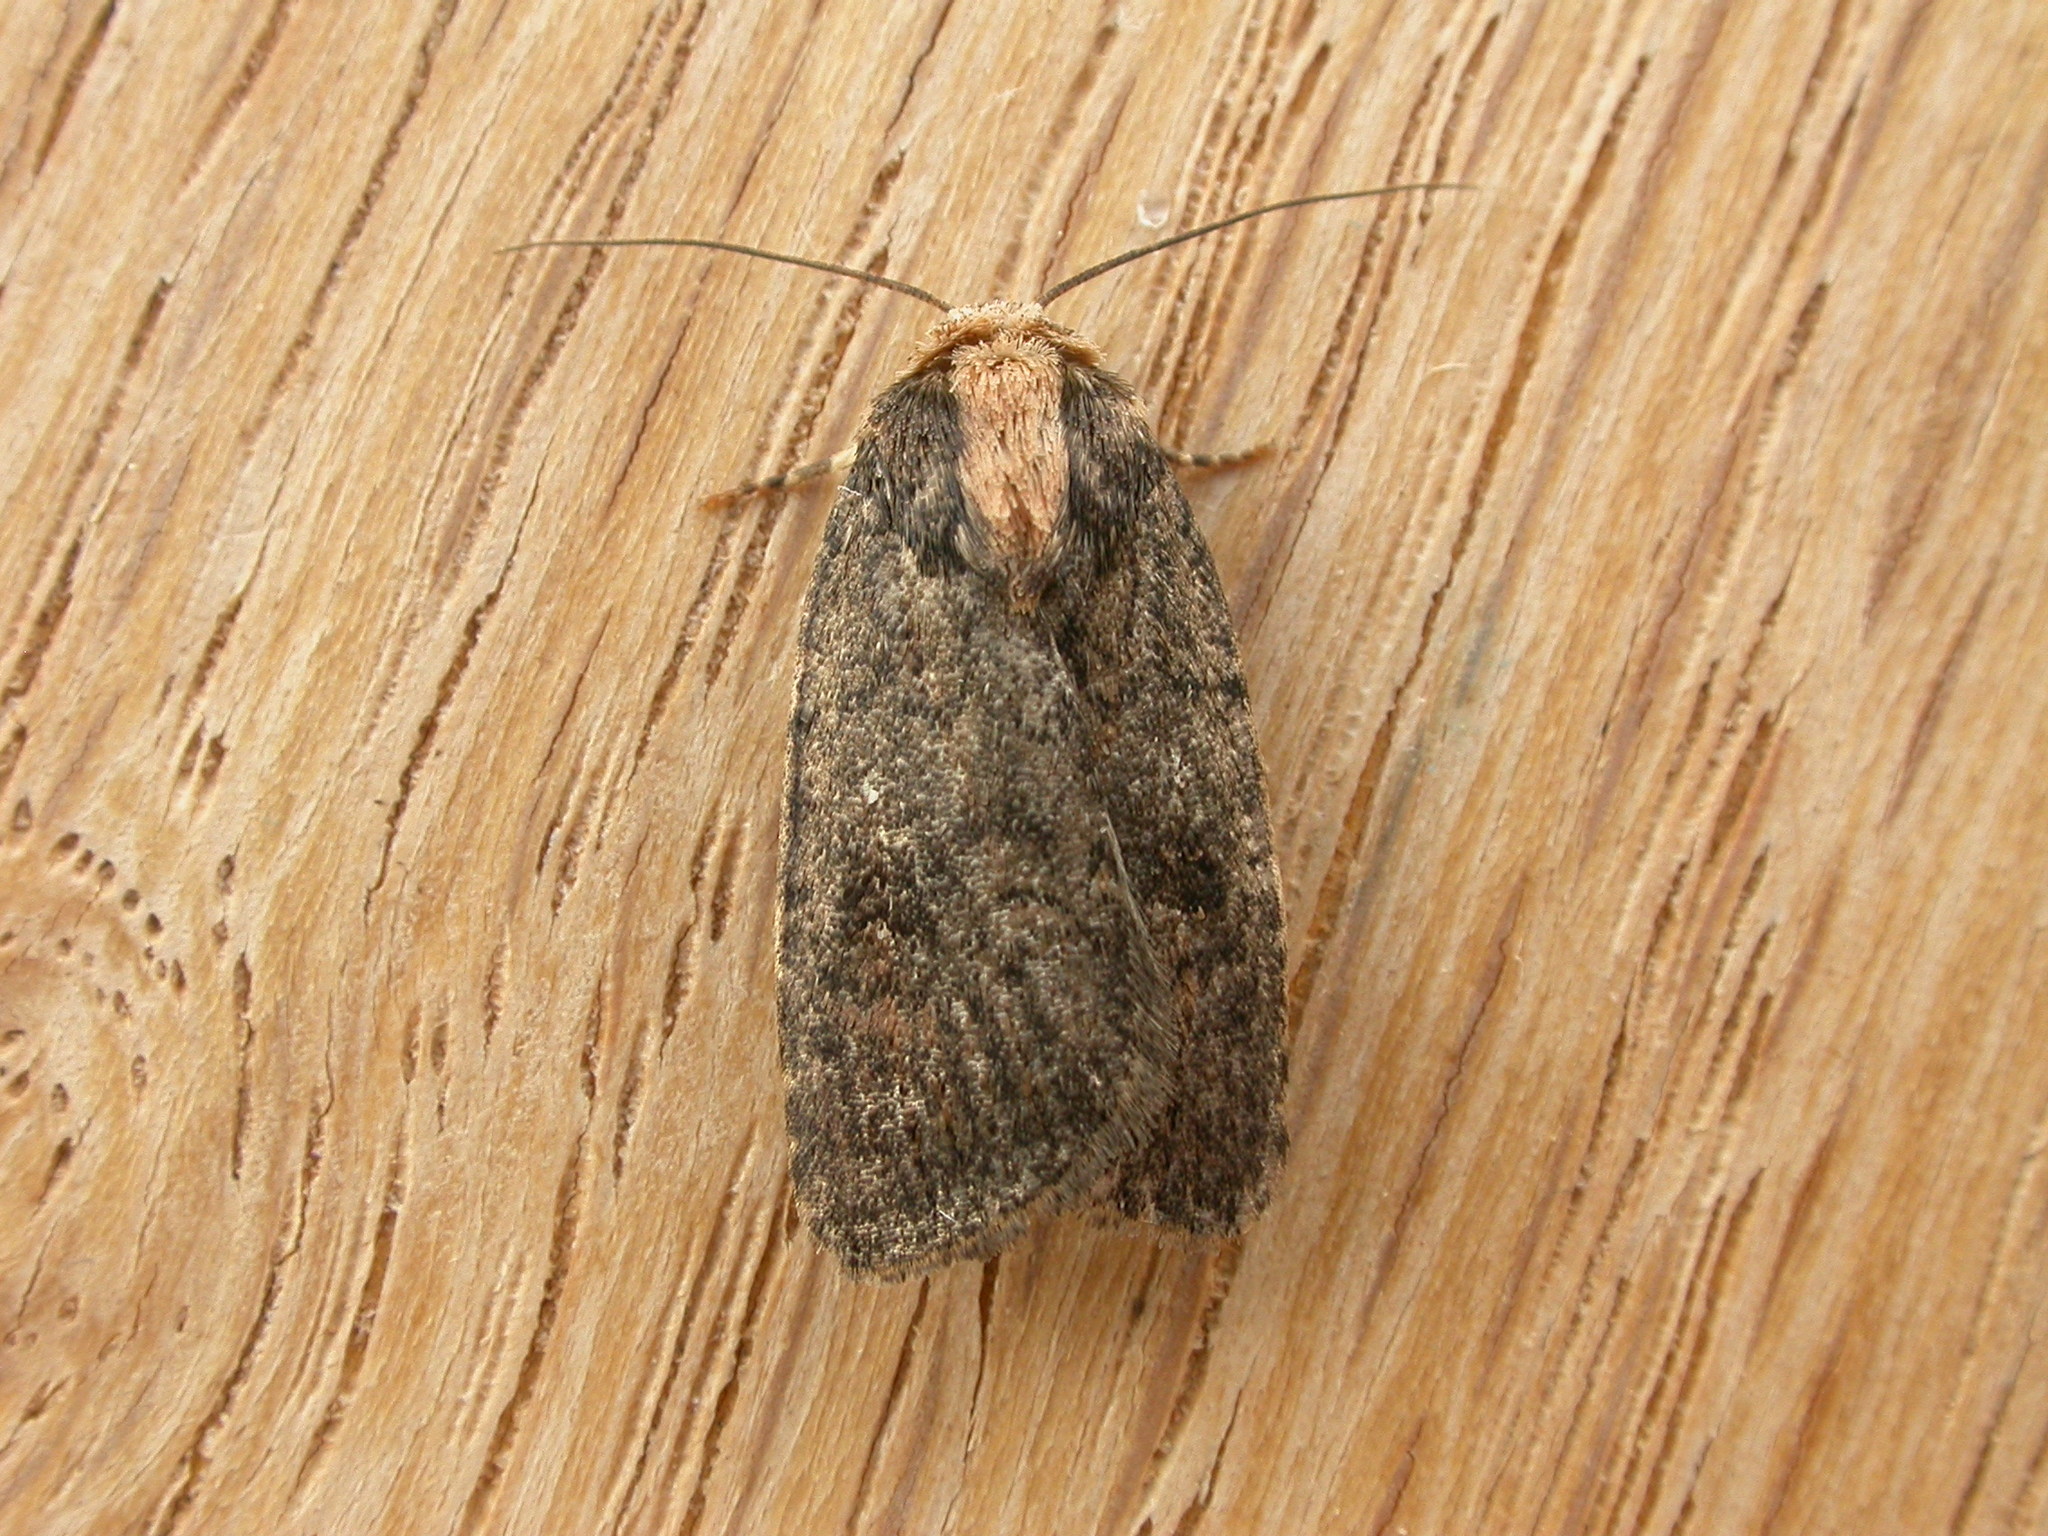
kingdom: Animalia
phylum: Arthropoda
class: Insecta
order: Lepidoptera
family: Noctuidae
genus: Proteuxoa
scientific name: Proteuxoa nyctereutica
